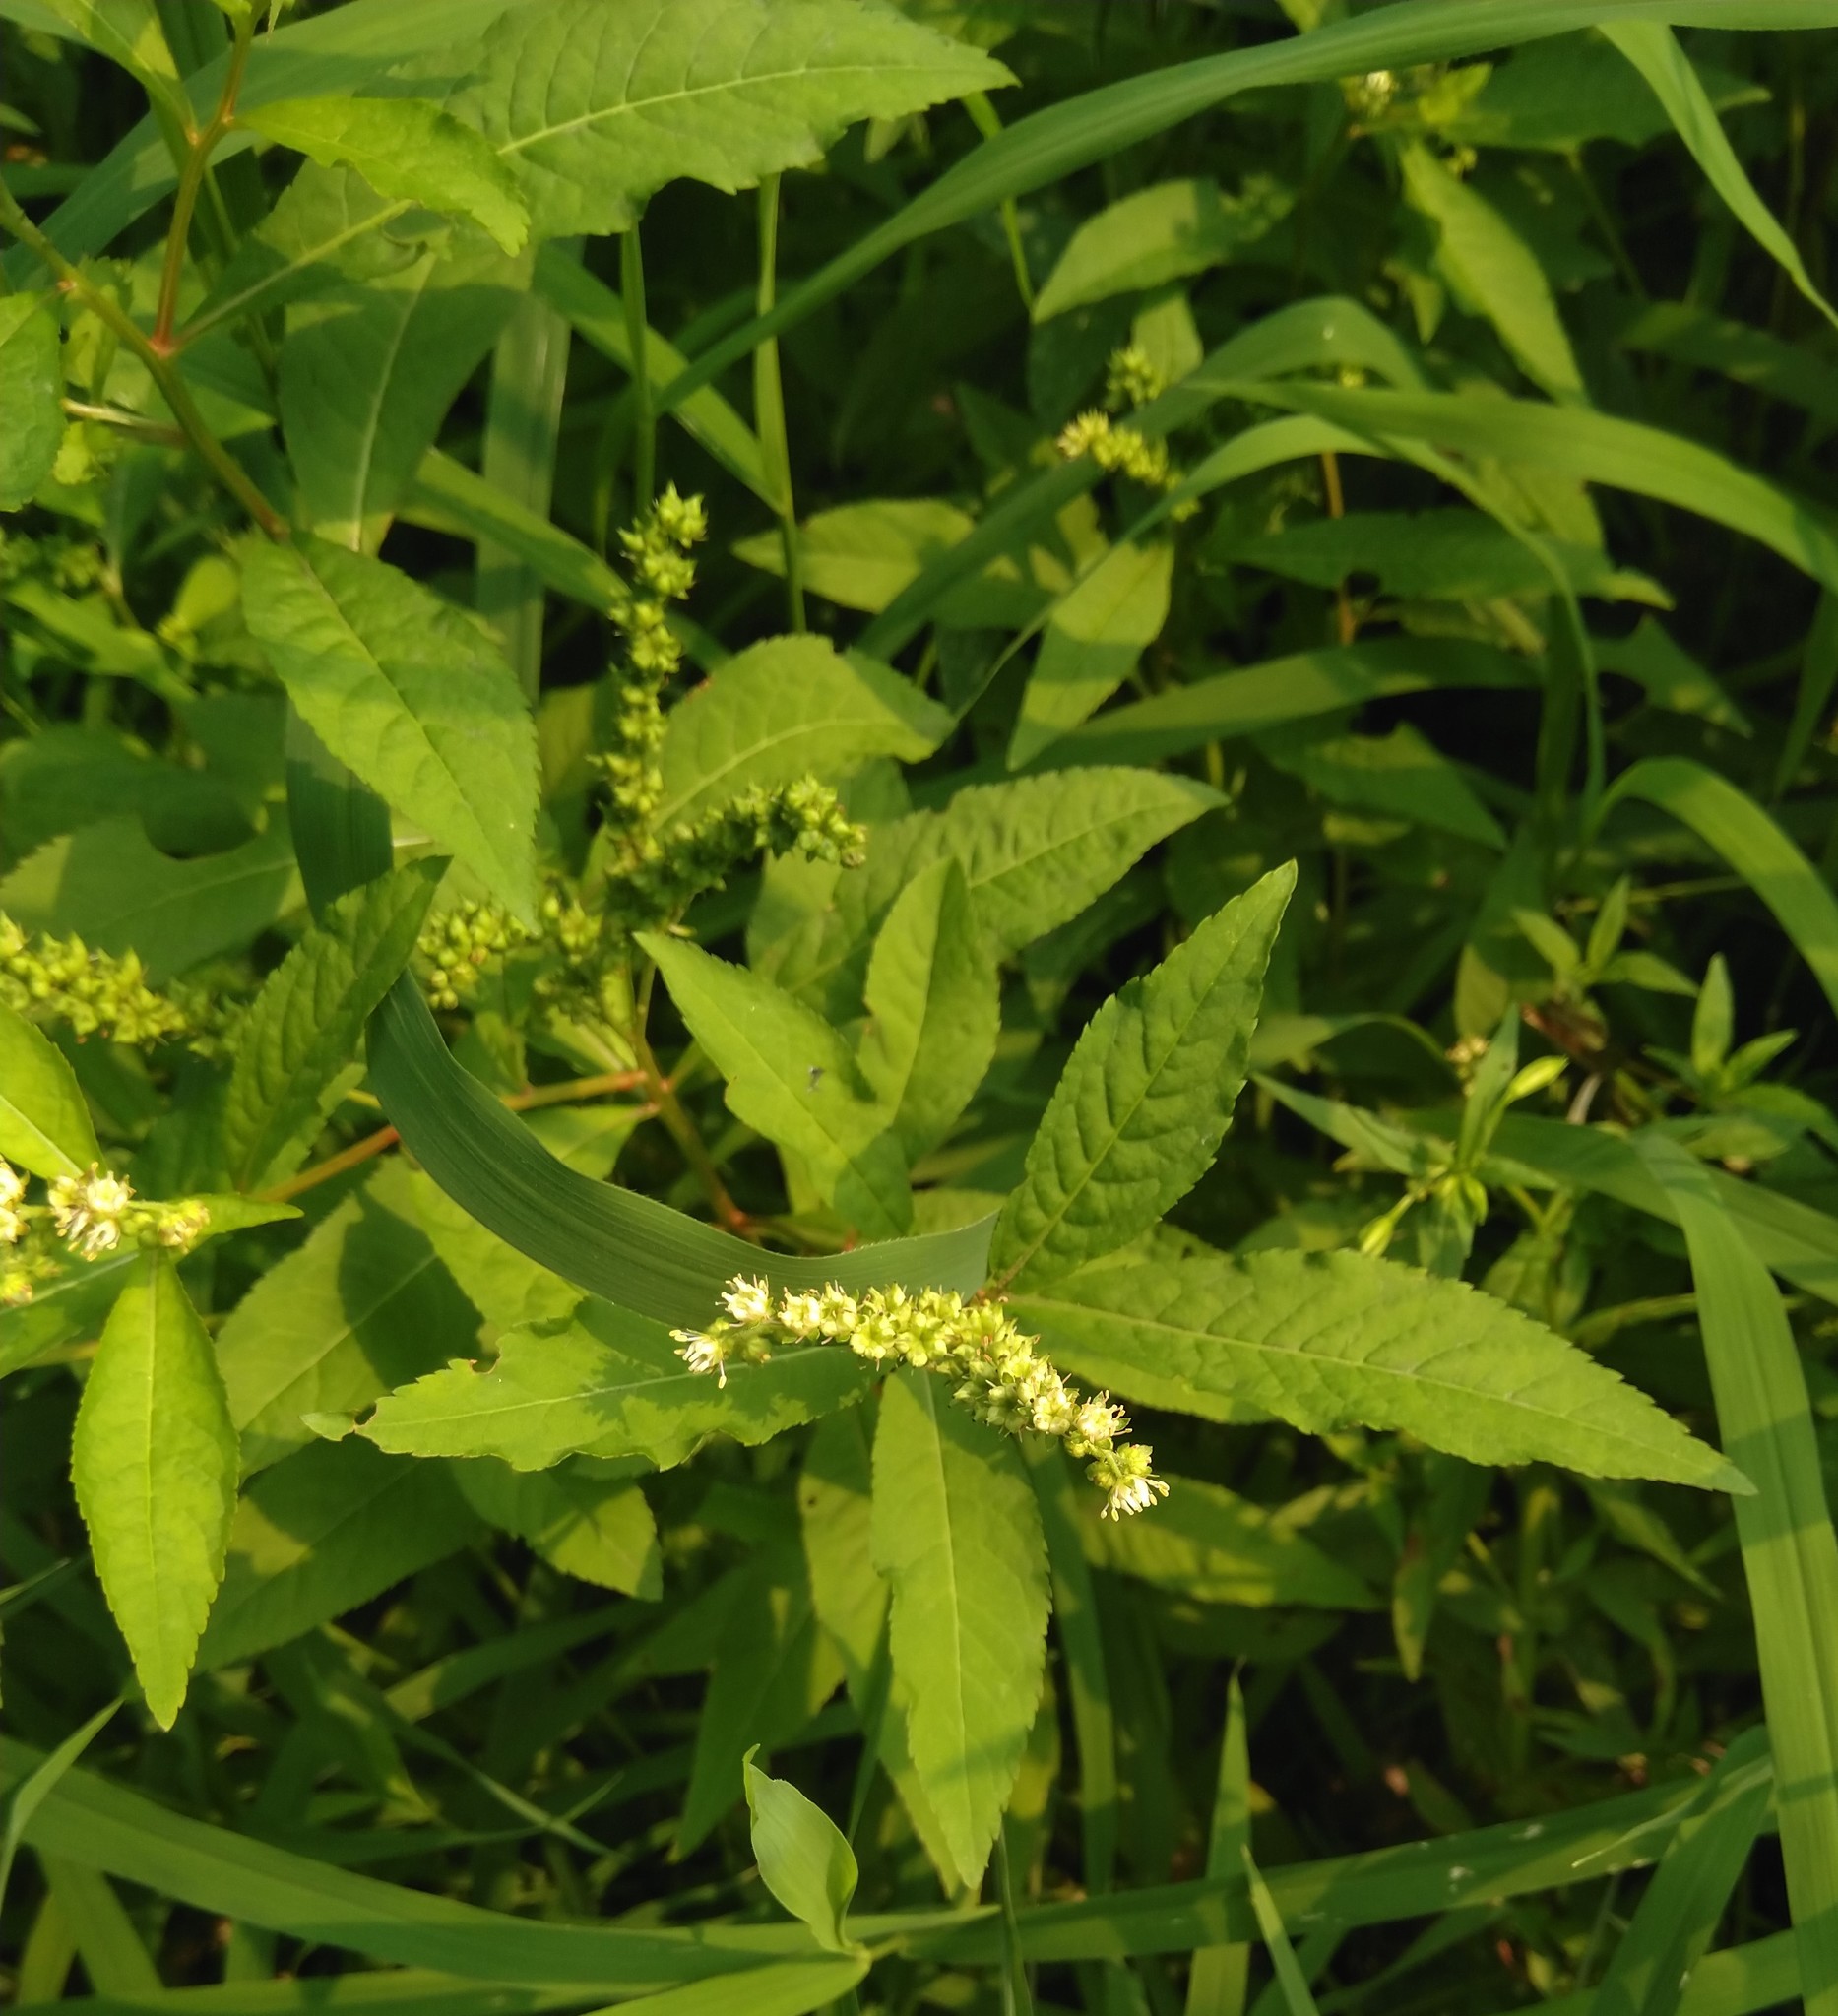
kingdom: Plantae
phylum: Tracheophyta
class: Magnoliopsida
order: Saxifragales
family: Penthoraceae
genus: Penthorum
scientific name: Penthorum sedoides
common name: Ditch stonecrop
